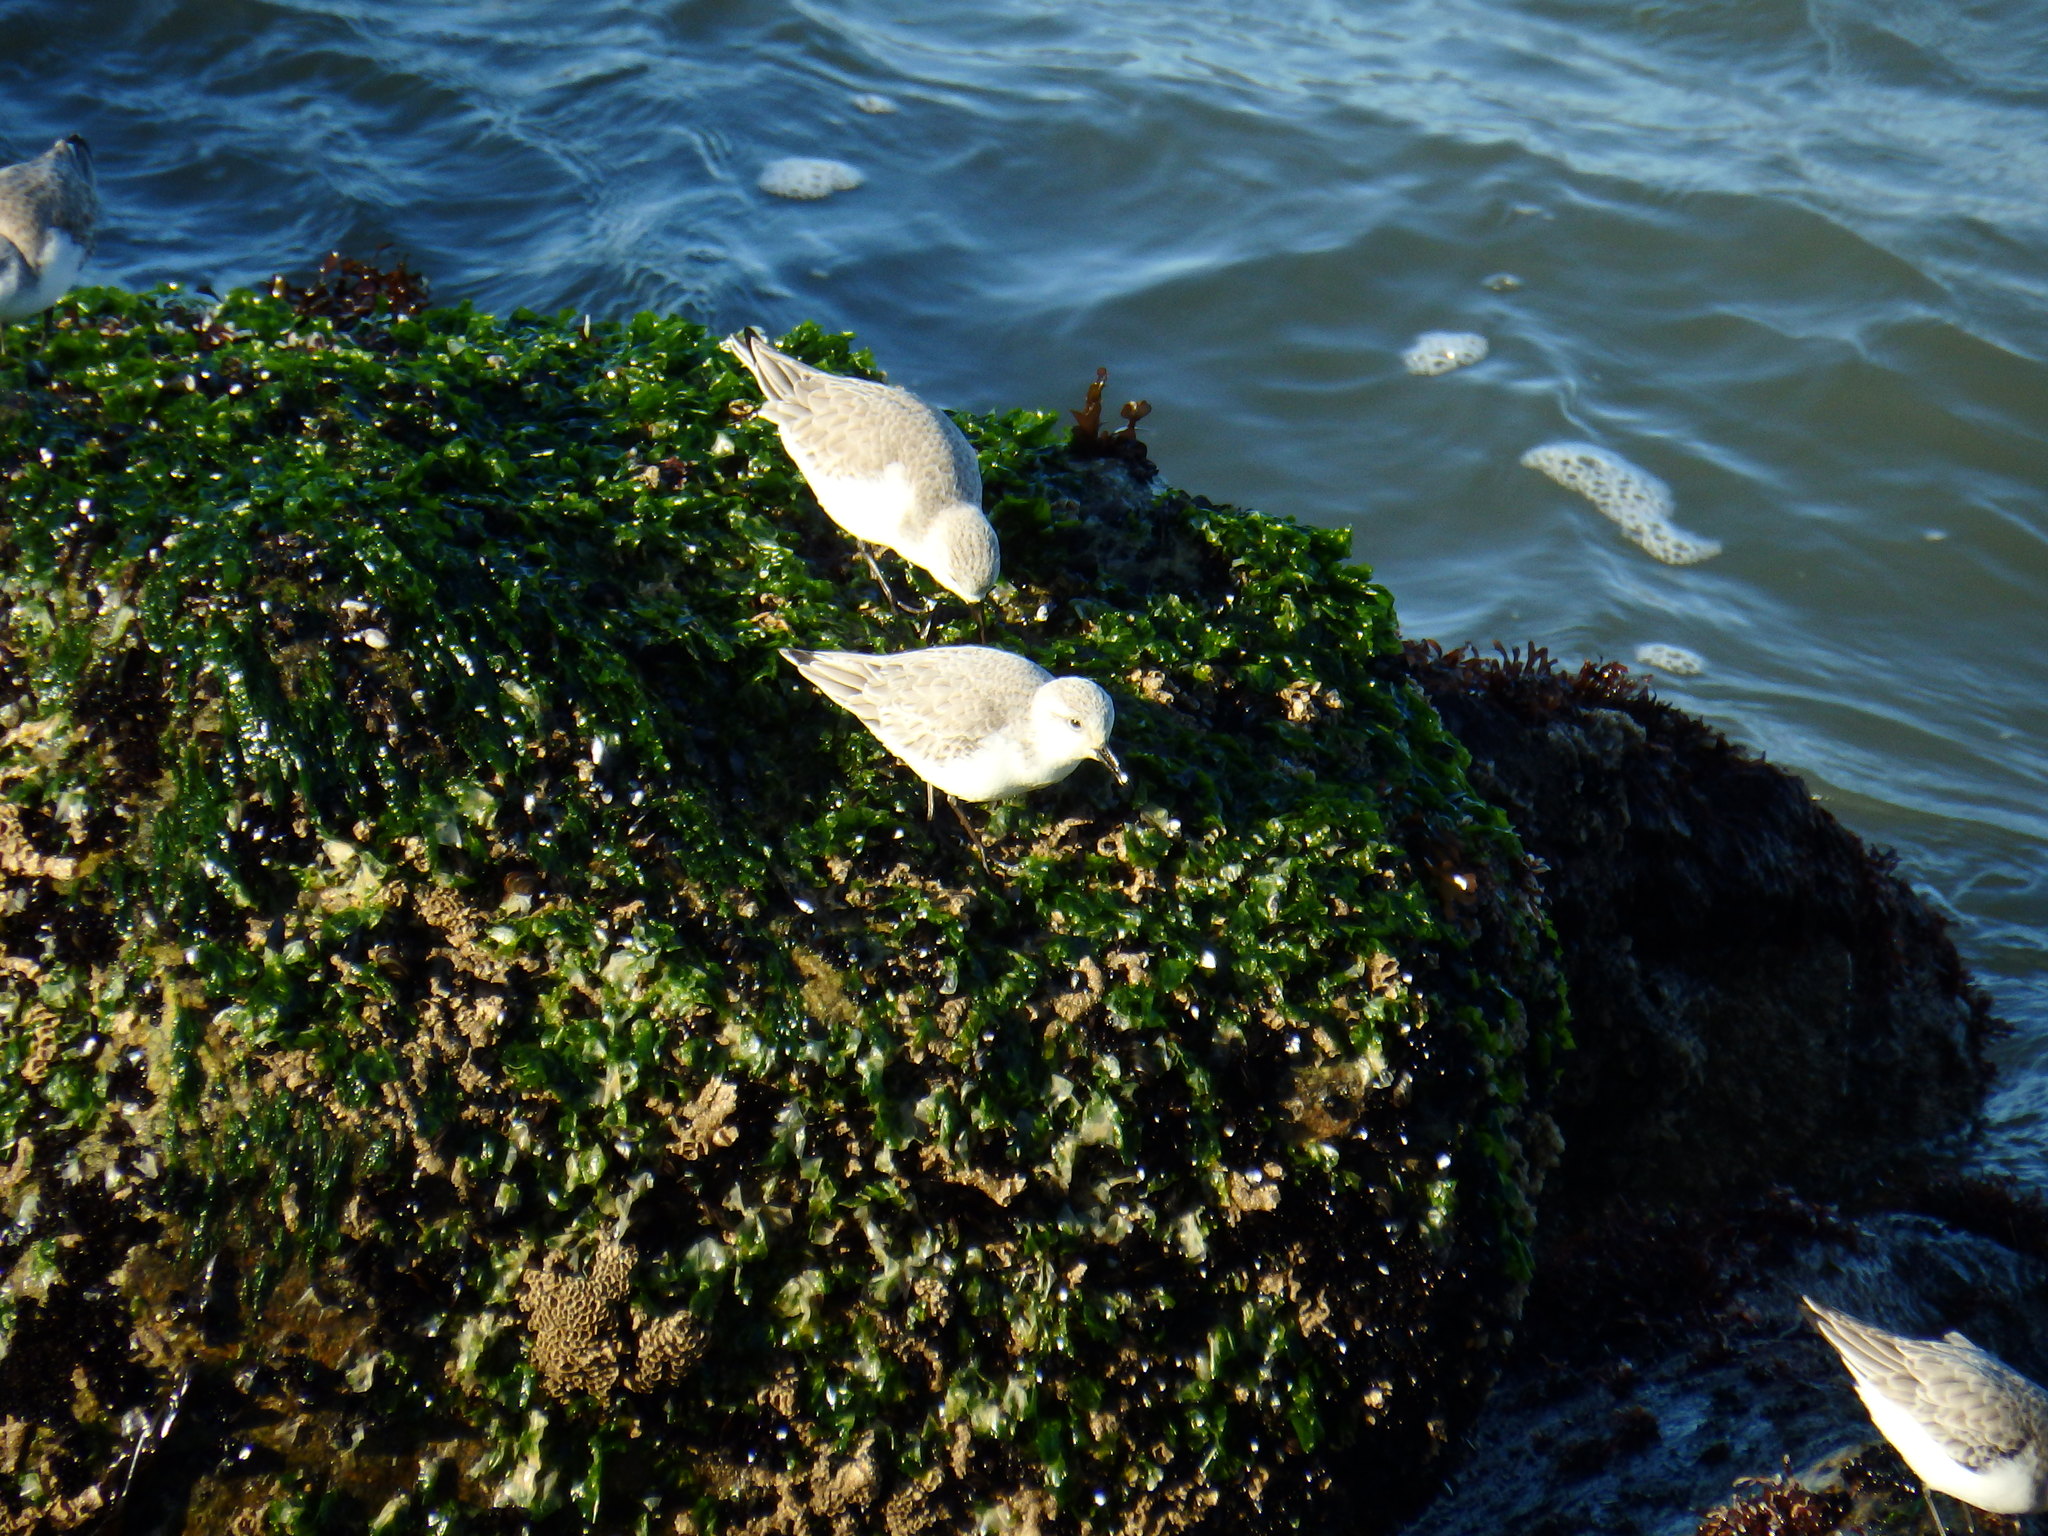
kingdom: Animalia
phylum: Chordata
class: Aves
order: Charadriiformes
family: Scolopacidae
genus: Calidris
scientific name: Calidris alba
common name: Sanderling
